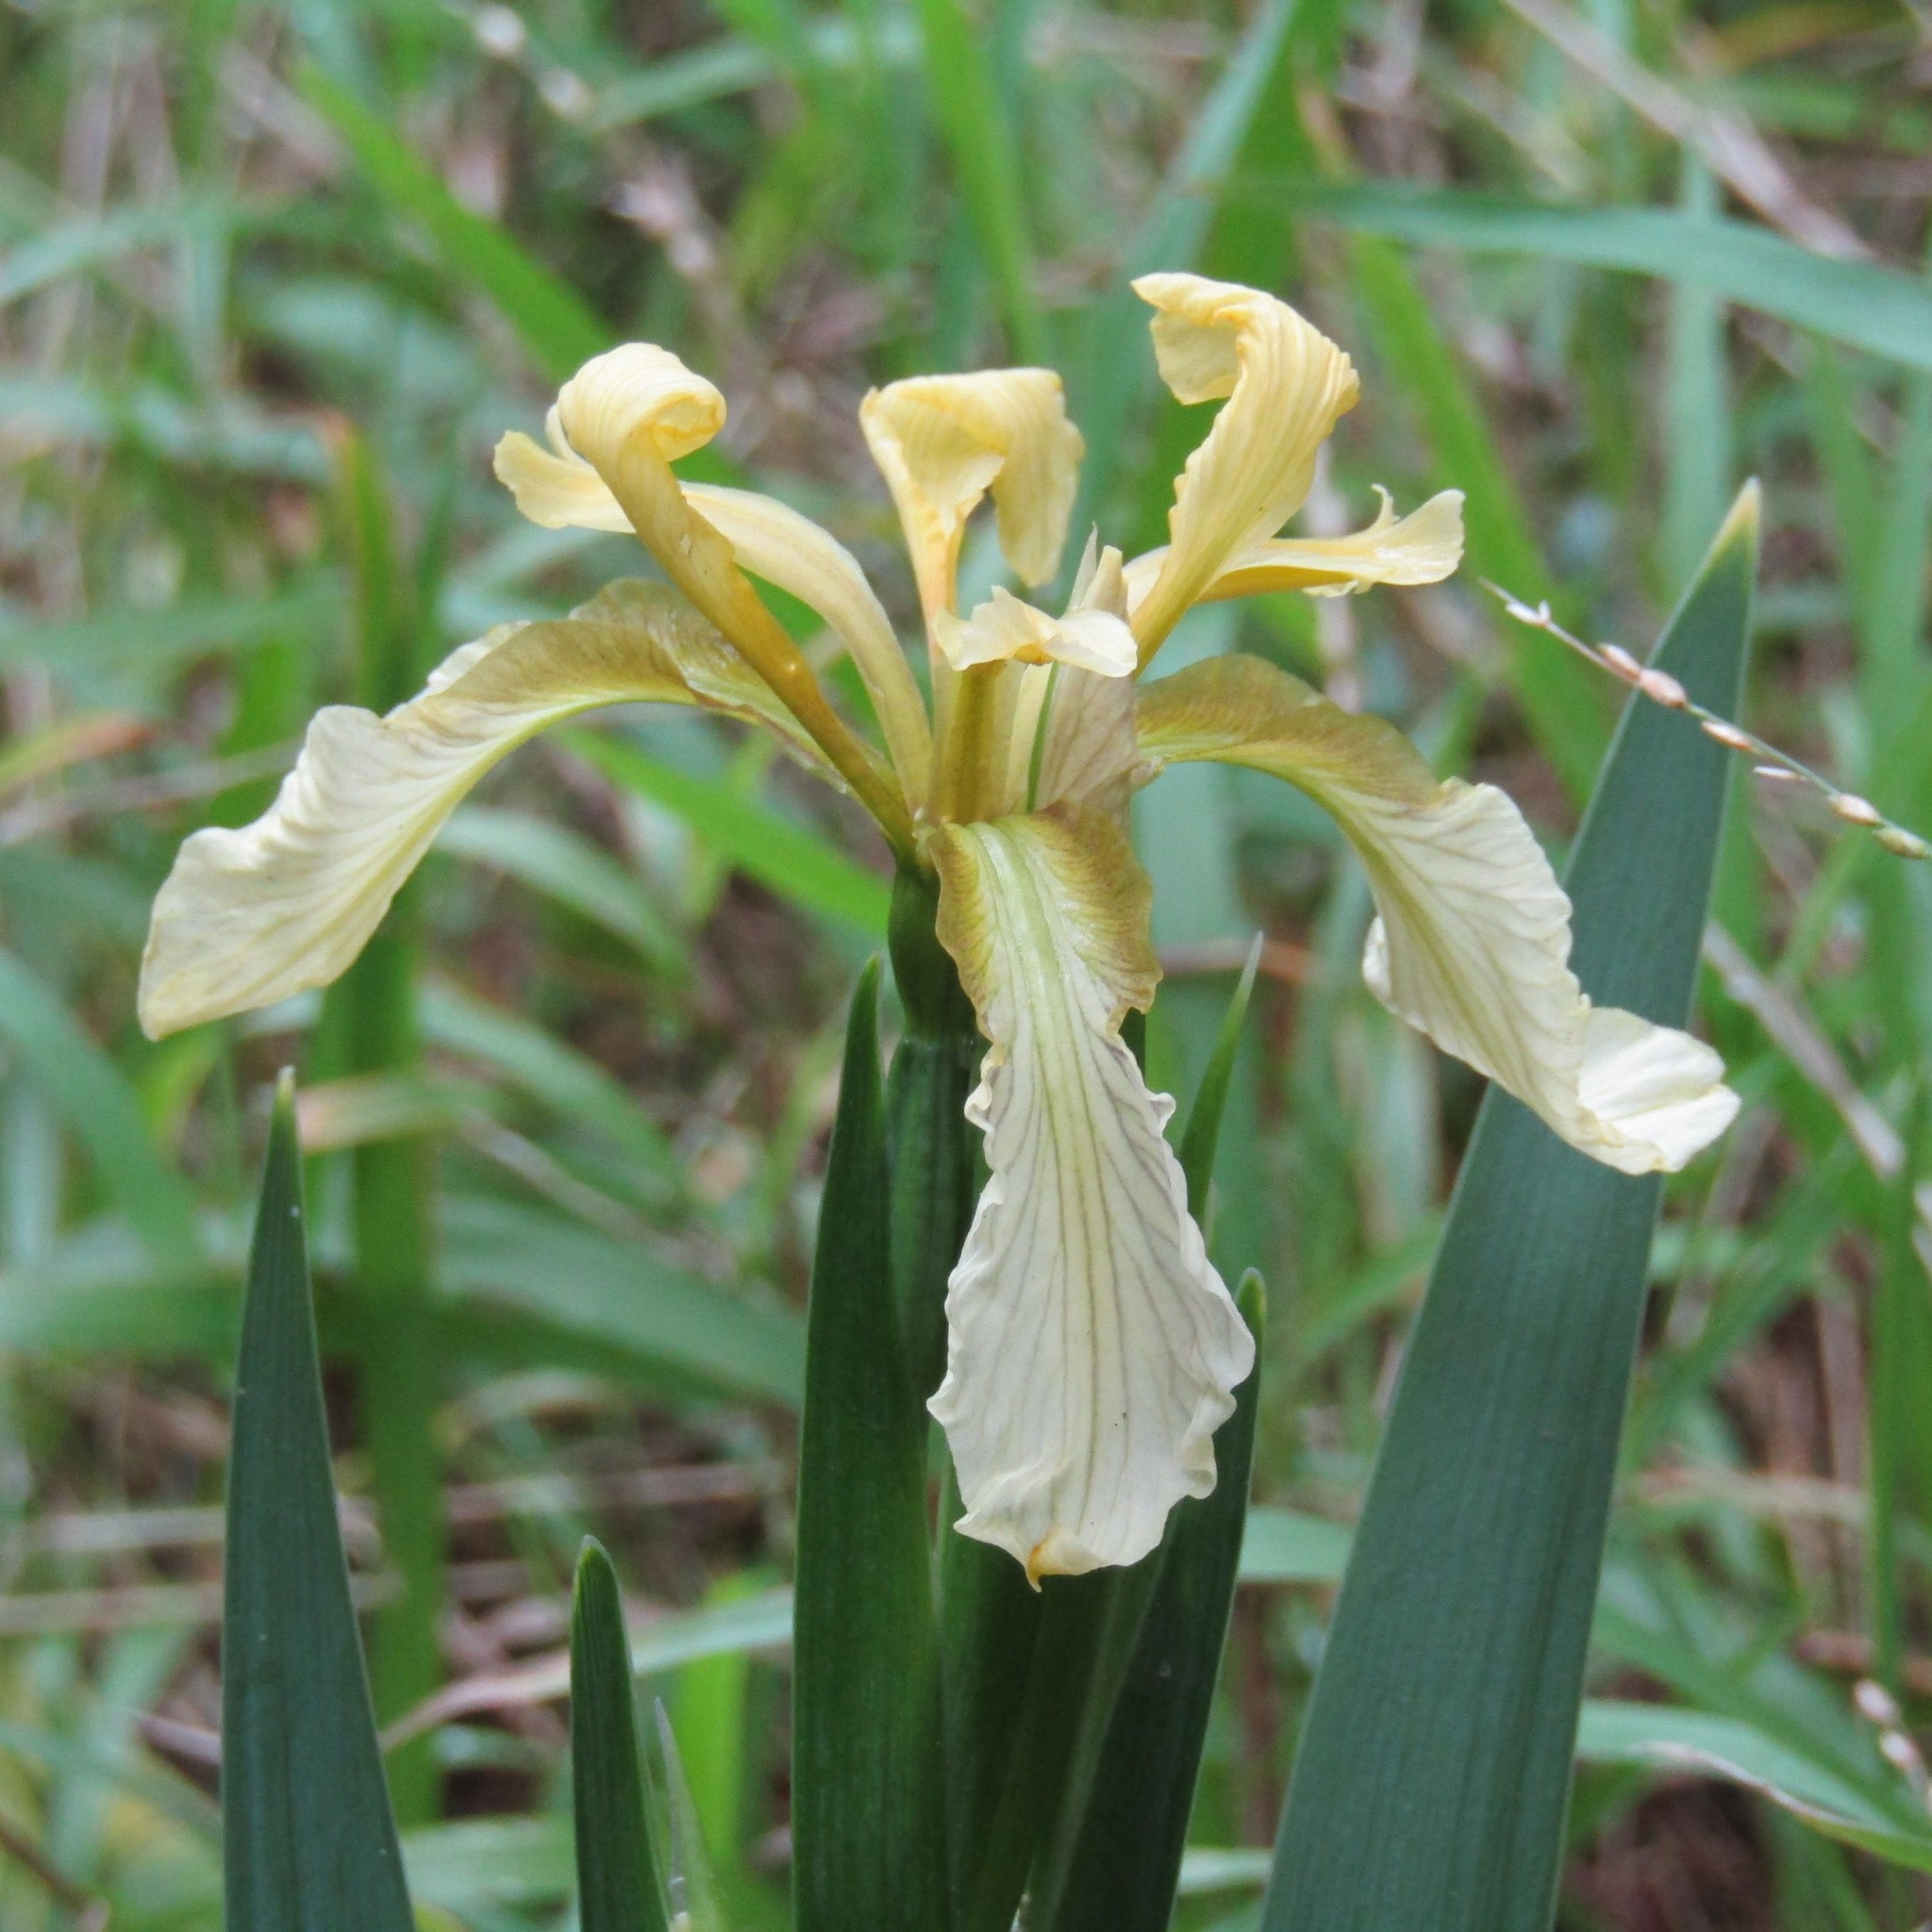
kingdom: Plantae
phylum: Tracheophyta
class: Liliopsida
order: Asparagales
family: Iridaceae
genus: Iris
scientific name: Iris foetidissima
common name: Stinking iris
